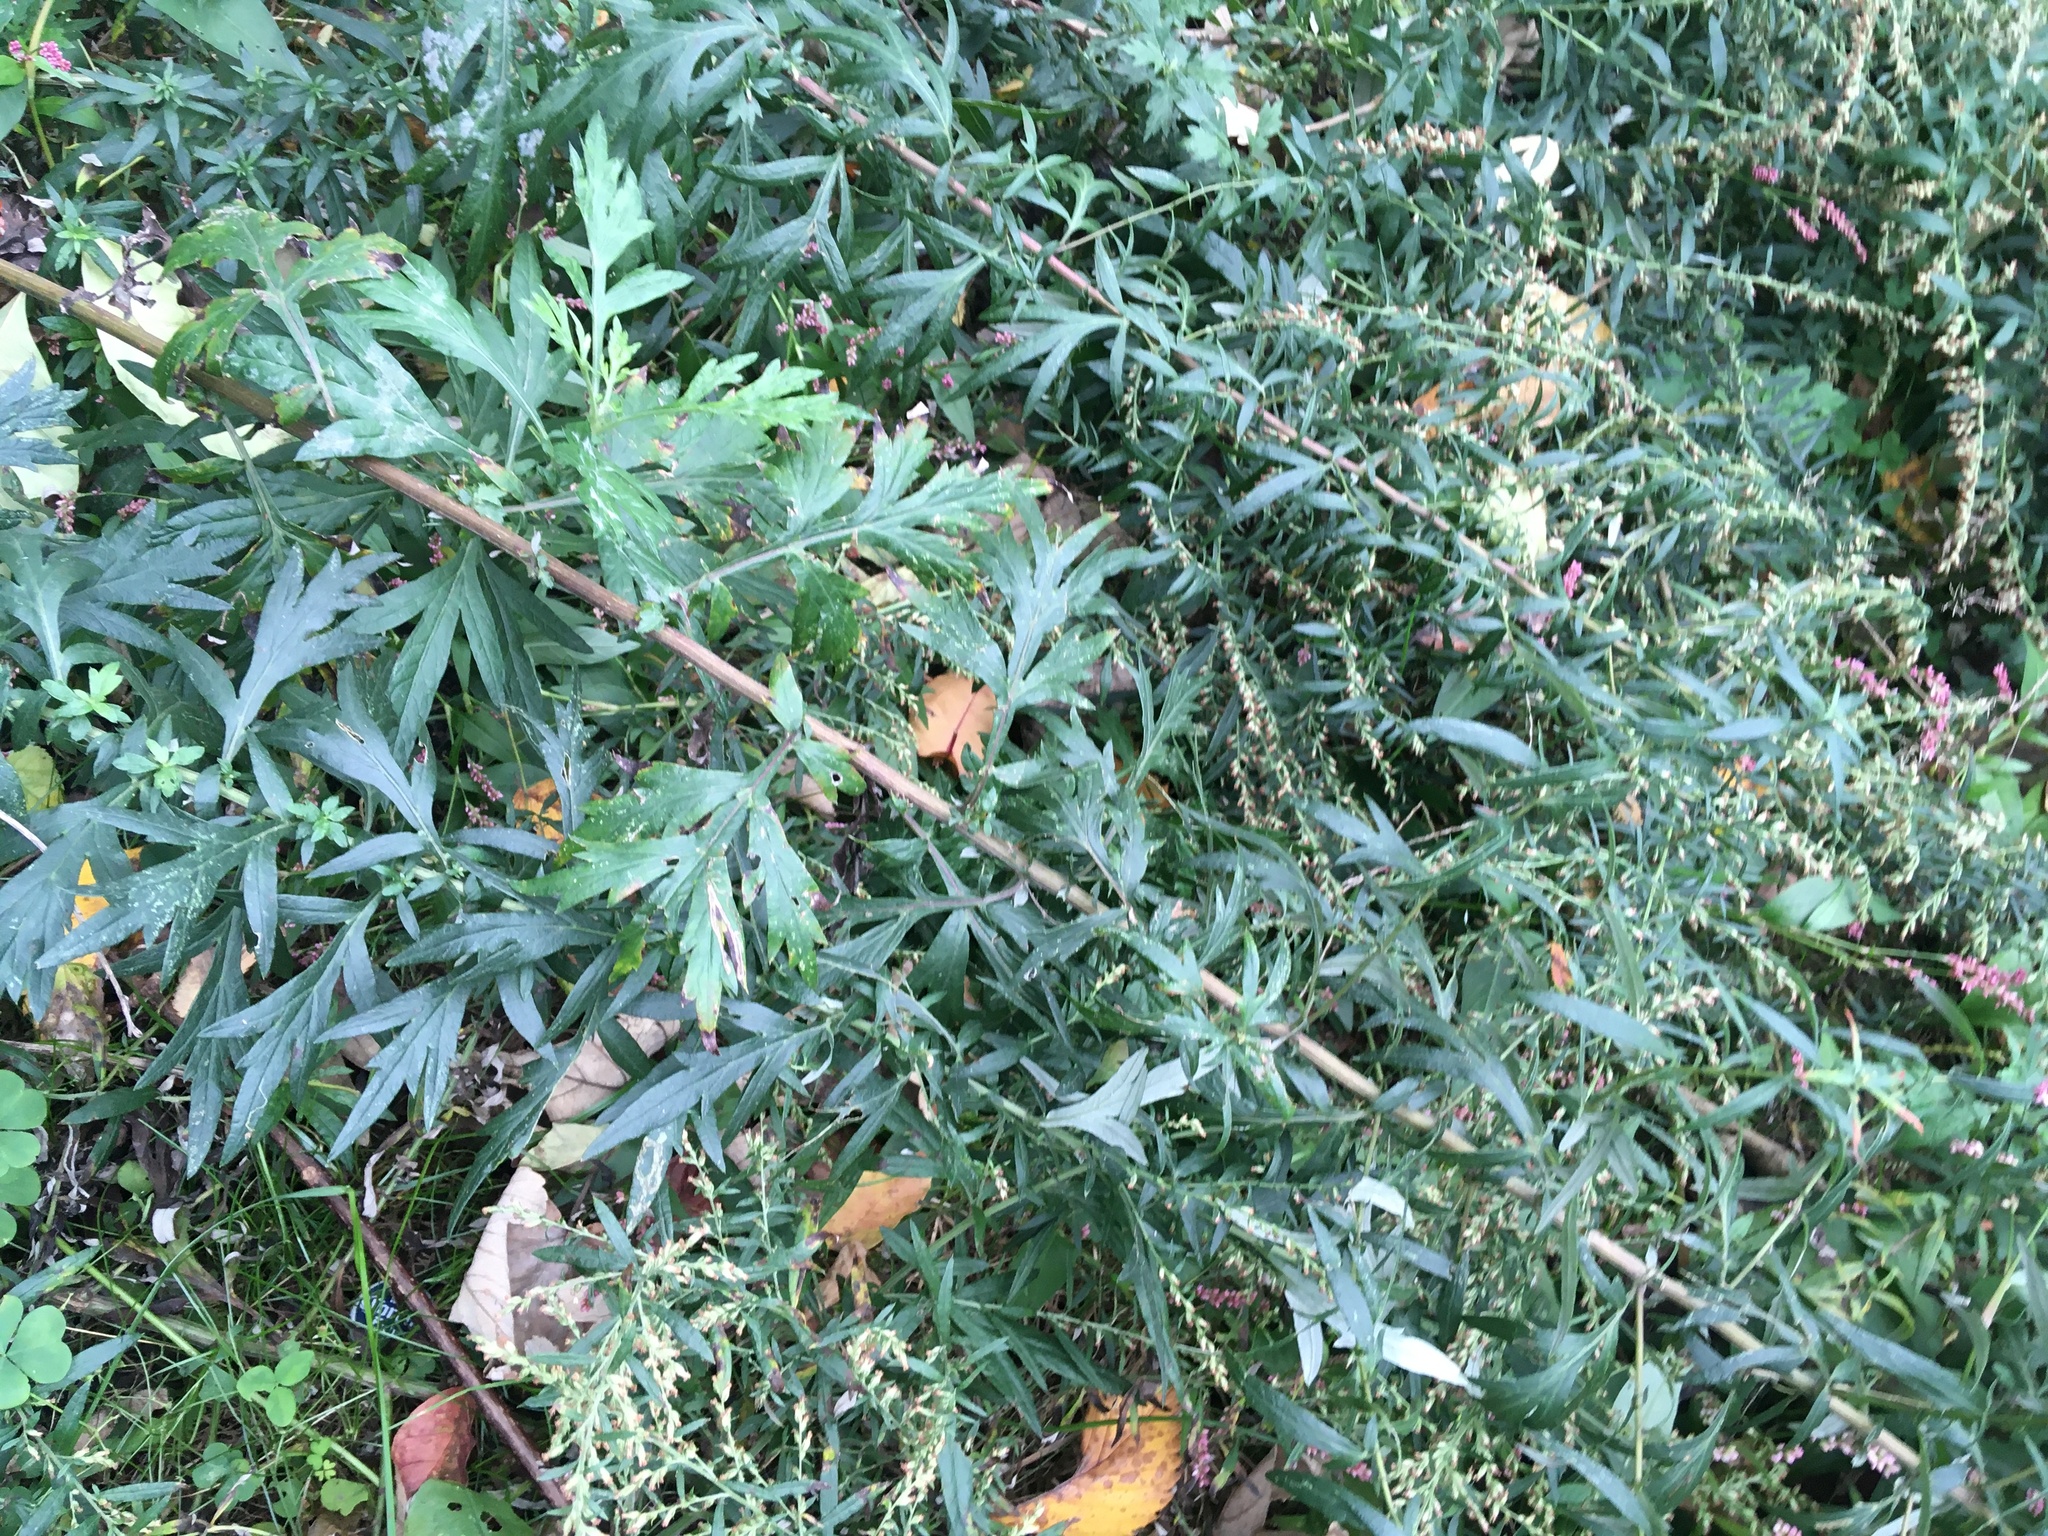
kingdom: Plantae
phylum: Tracheophyta
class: Magnoliopsida
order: Asterales
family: Asteraceae
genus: Artemisia
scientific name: Artemisia vulgaris
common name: Mugwort
